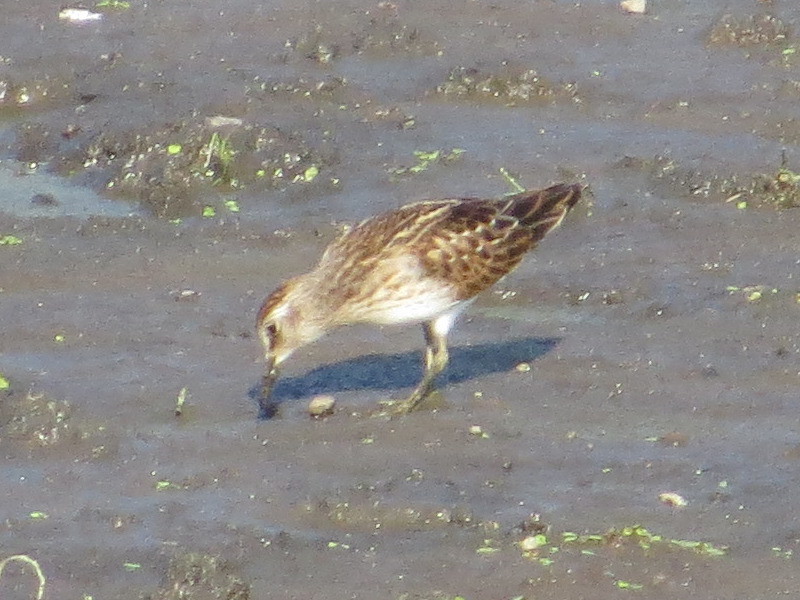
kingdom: Animalia
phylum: Chordata
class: Aves
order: Charadriiformes
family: Scolopacidae
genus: Calidris
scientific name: Calidris minutilla
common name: Least sandpiper
